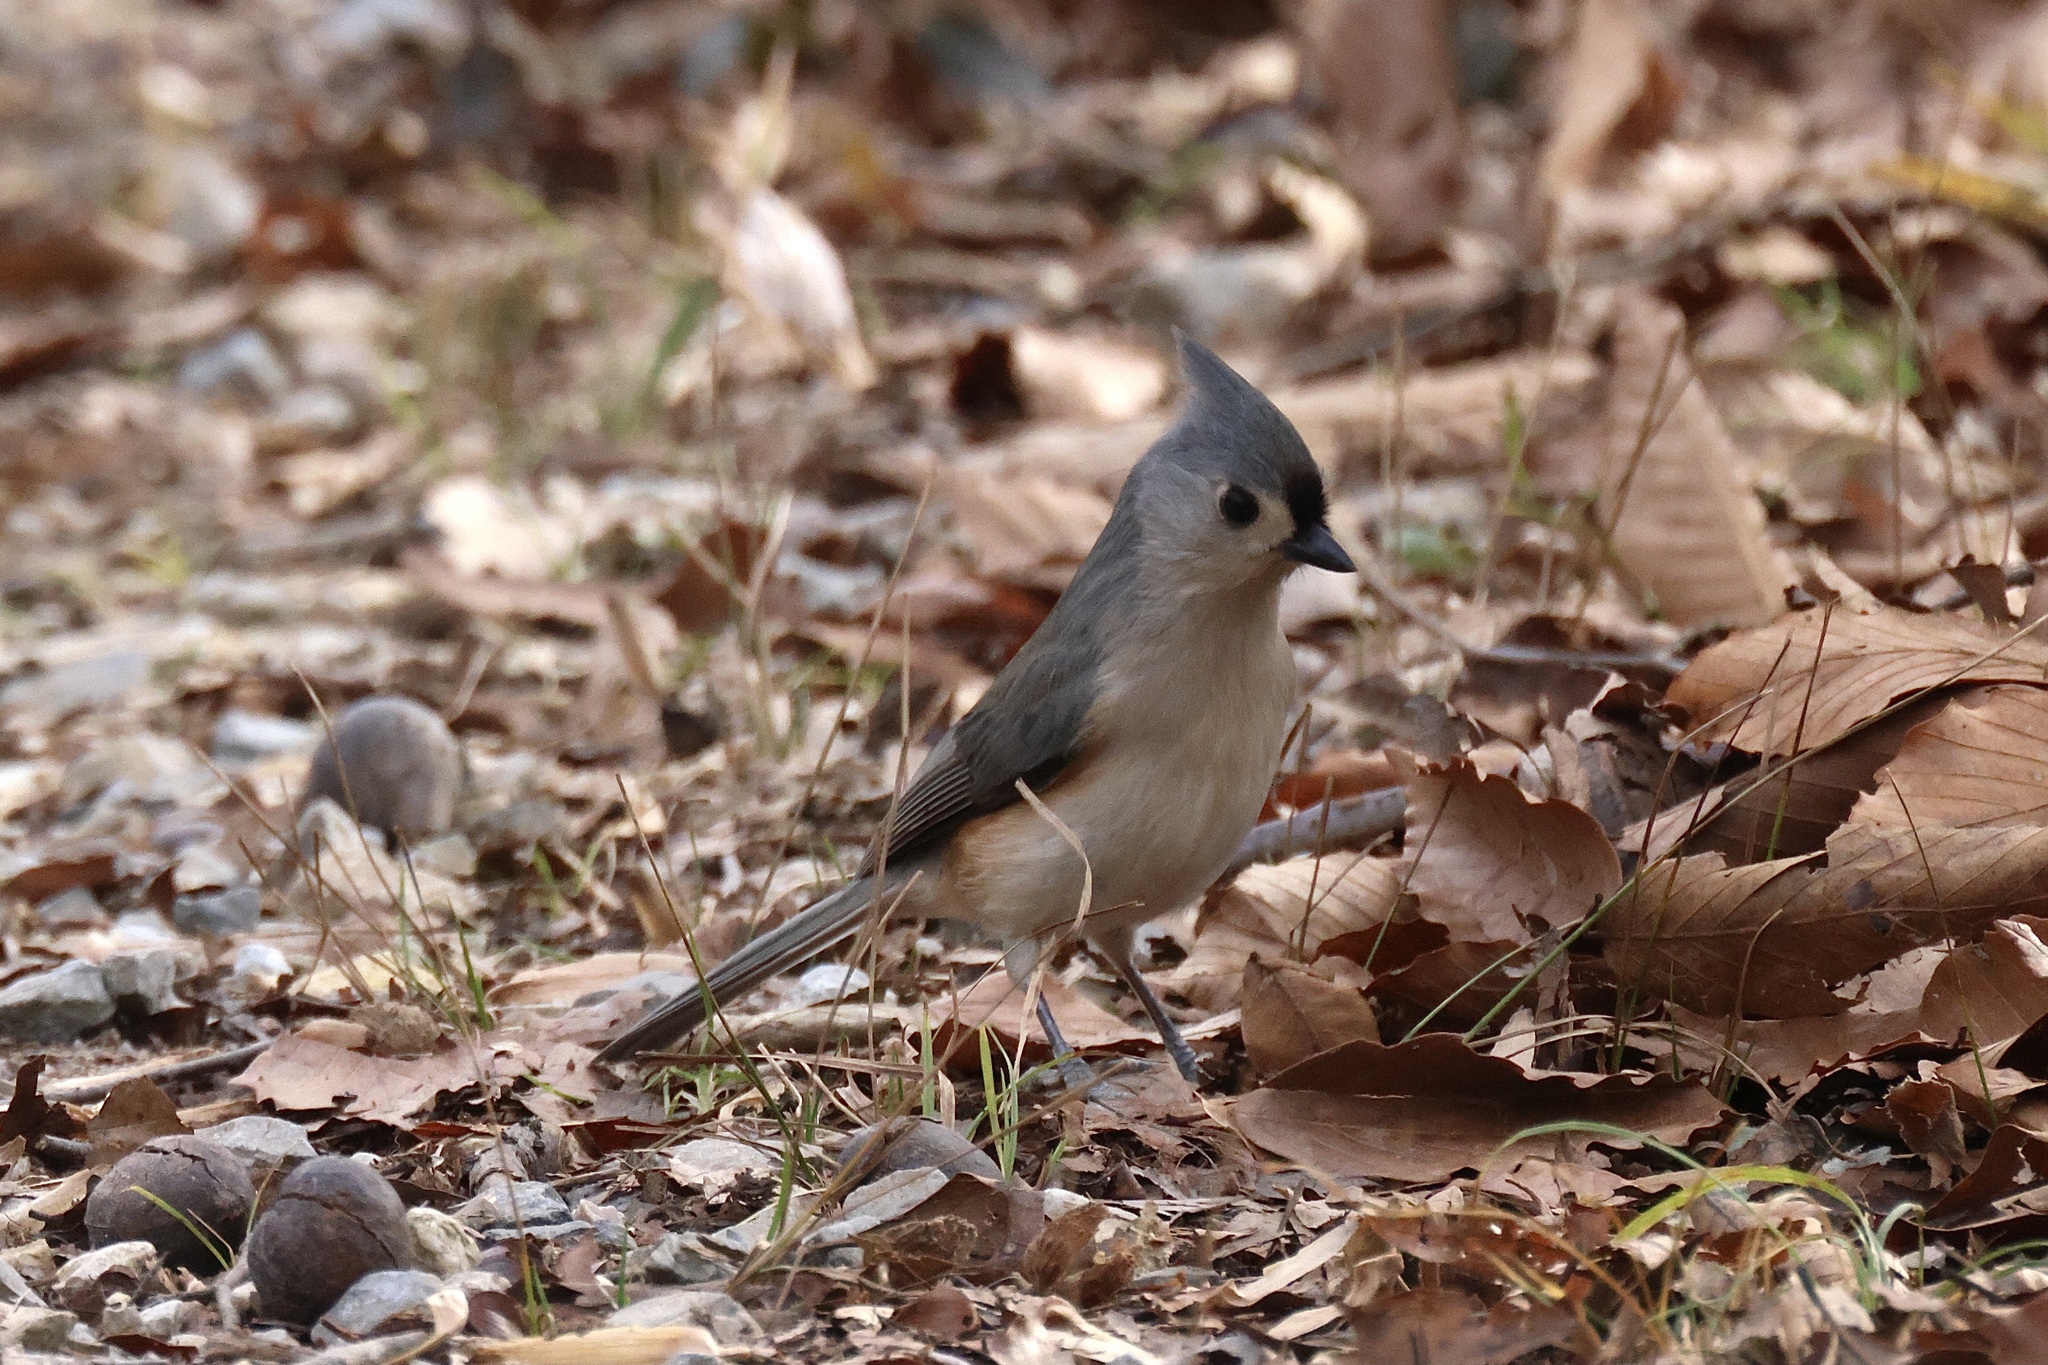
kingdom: Animalia
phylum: Chordata
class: Aves
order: Passeriformes
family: Paridae
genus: Baeolophus
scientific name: Baeolophus bicolor
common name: Tufted titmouse
